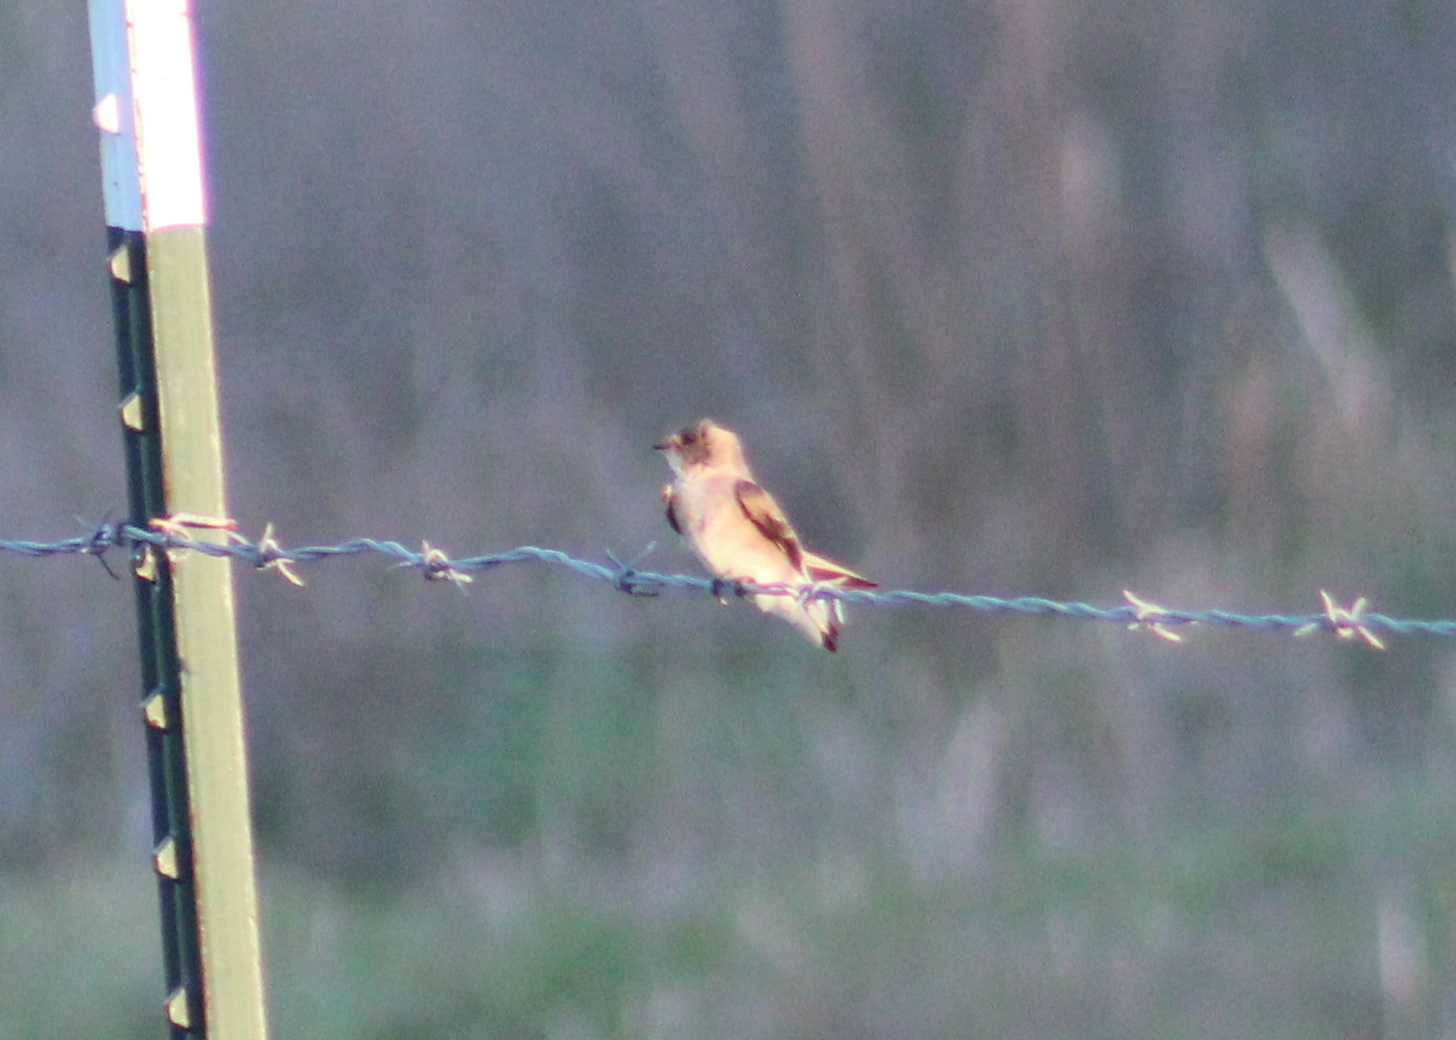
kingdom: Animalia
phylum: Chordata
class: Aves
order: Passeriformes
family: Hirundinidae
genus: Stelgidopteryx
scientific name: Stelgidopteryx serripennis
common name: Northern rough-winged swallow
